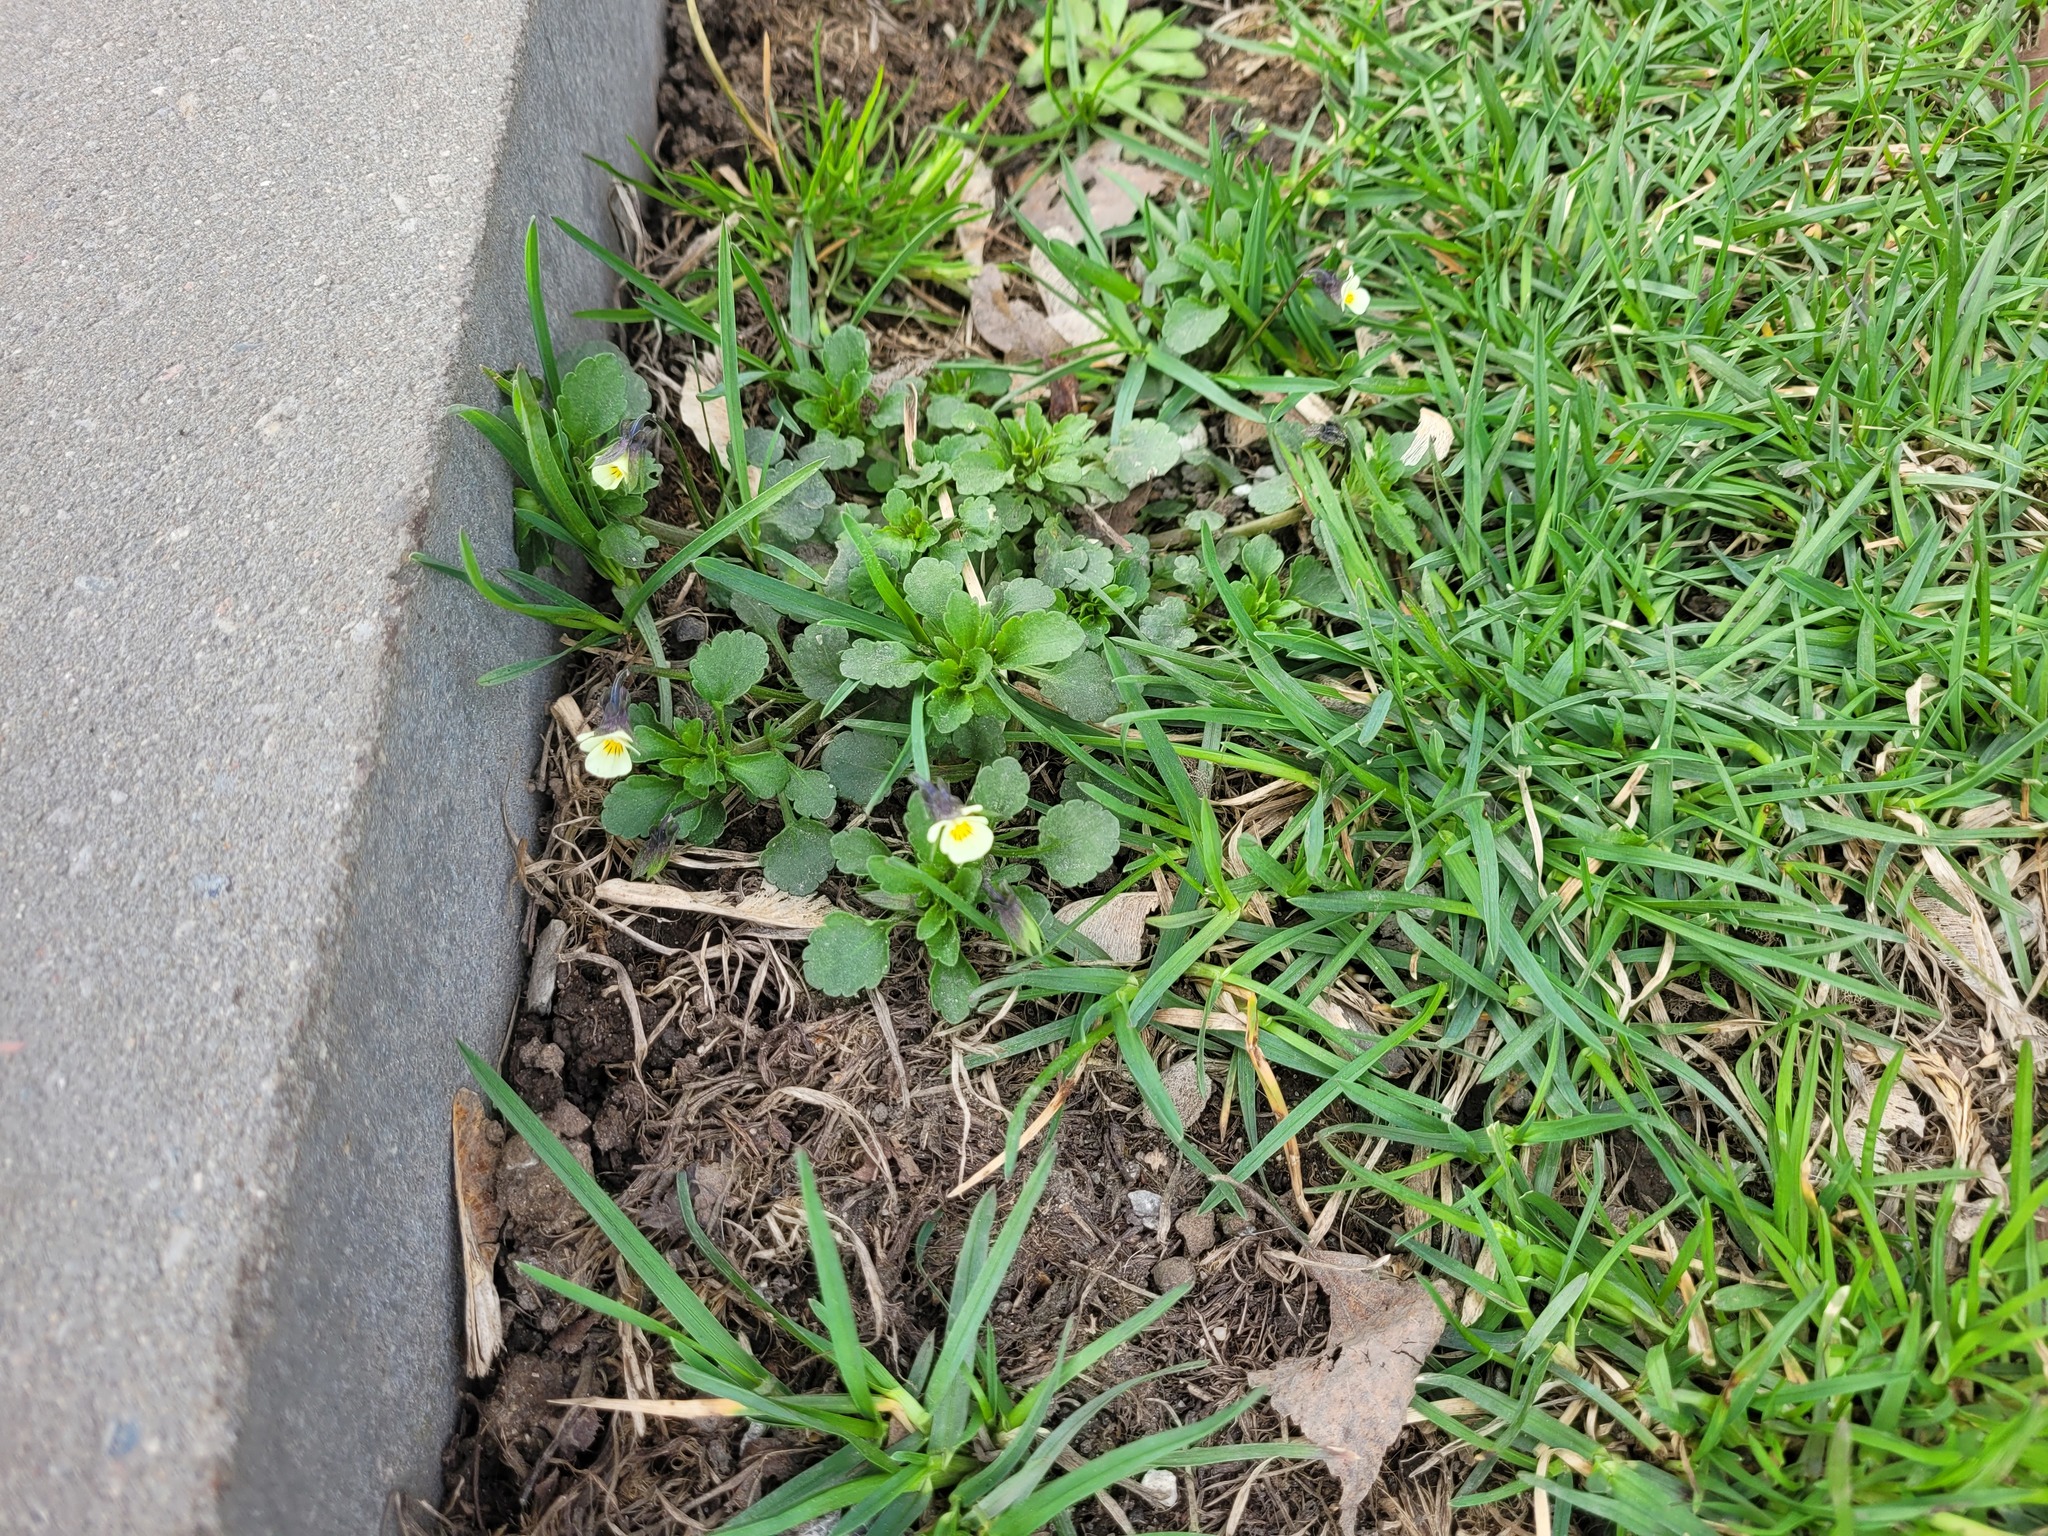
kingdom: Plantae
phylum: Tracheophyta
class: Magnoliopsida
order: Malpighiales
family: Violaceae
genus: Viola
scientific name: Viola arvensis
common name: Field pansy
